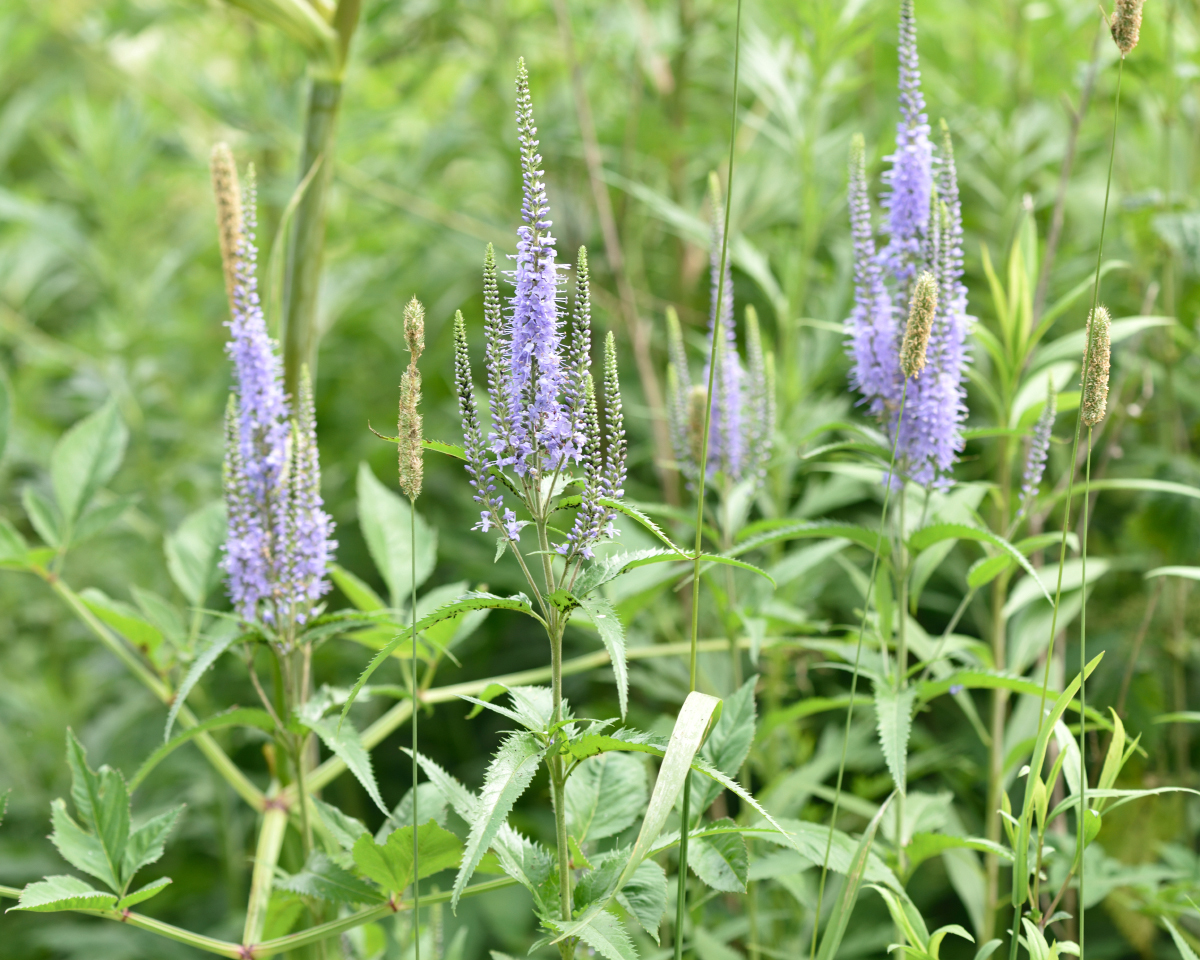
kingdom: Plantae
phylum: Tracheophyta
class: Magnoliopsida
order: Lamiales
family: Plantaginaceae
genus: Veronica
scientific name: Veronica longifolia
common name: Garden speedwell
